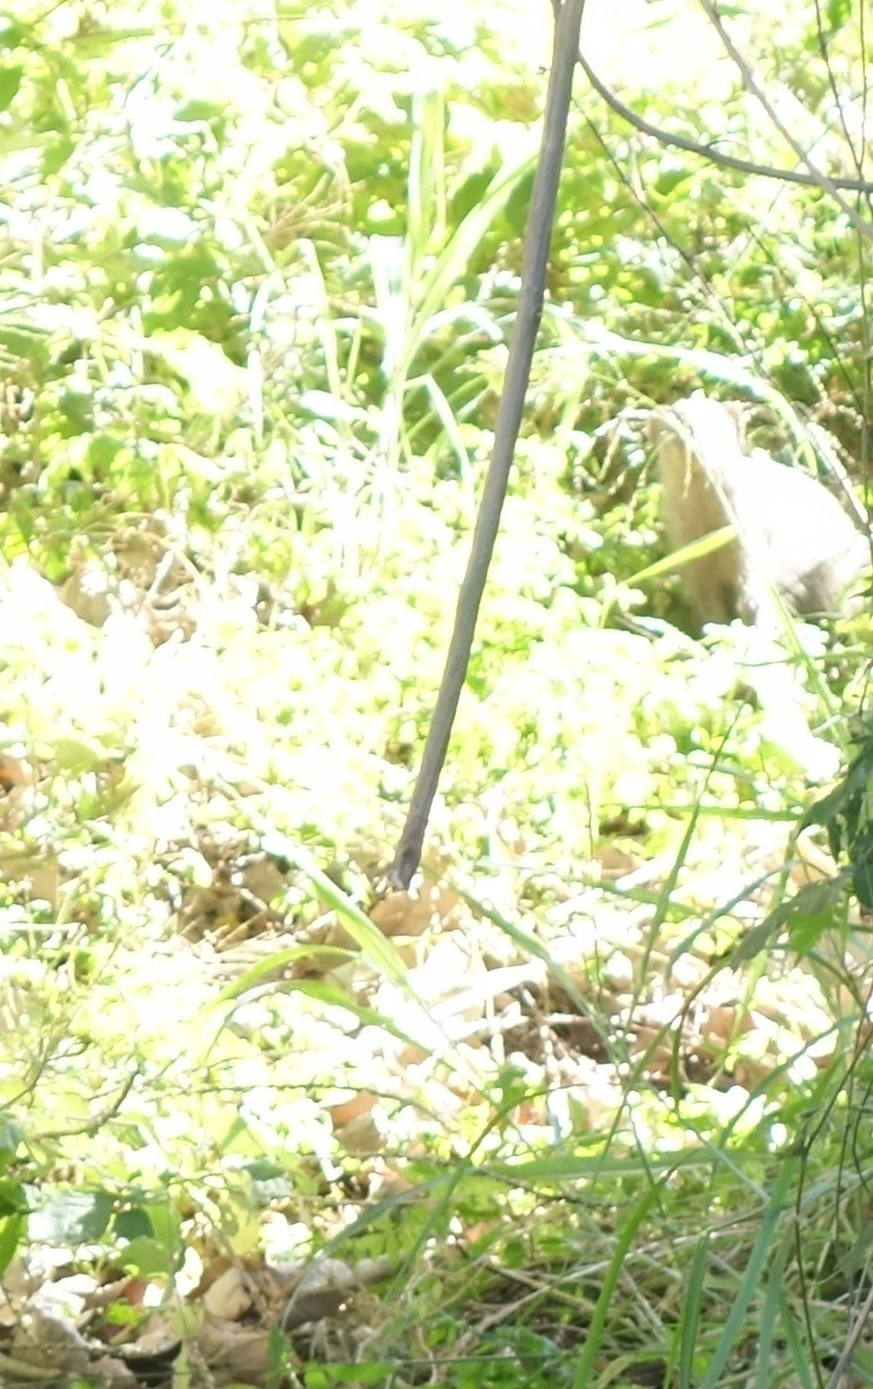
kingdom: Animalia
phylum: Chordata
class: Mammalia
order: Carnivora
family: Herpestidae
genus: Mungos
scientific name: Mungos mungo
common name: Banded mongoose
